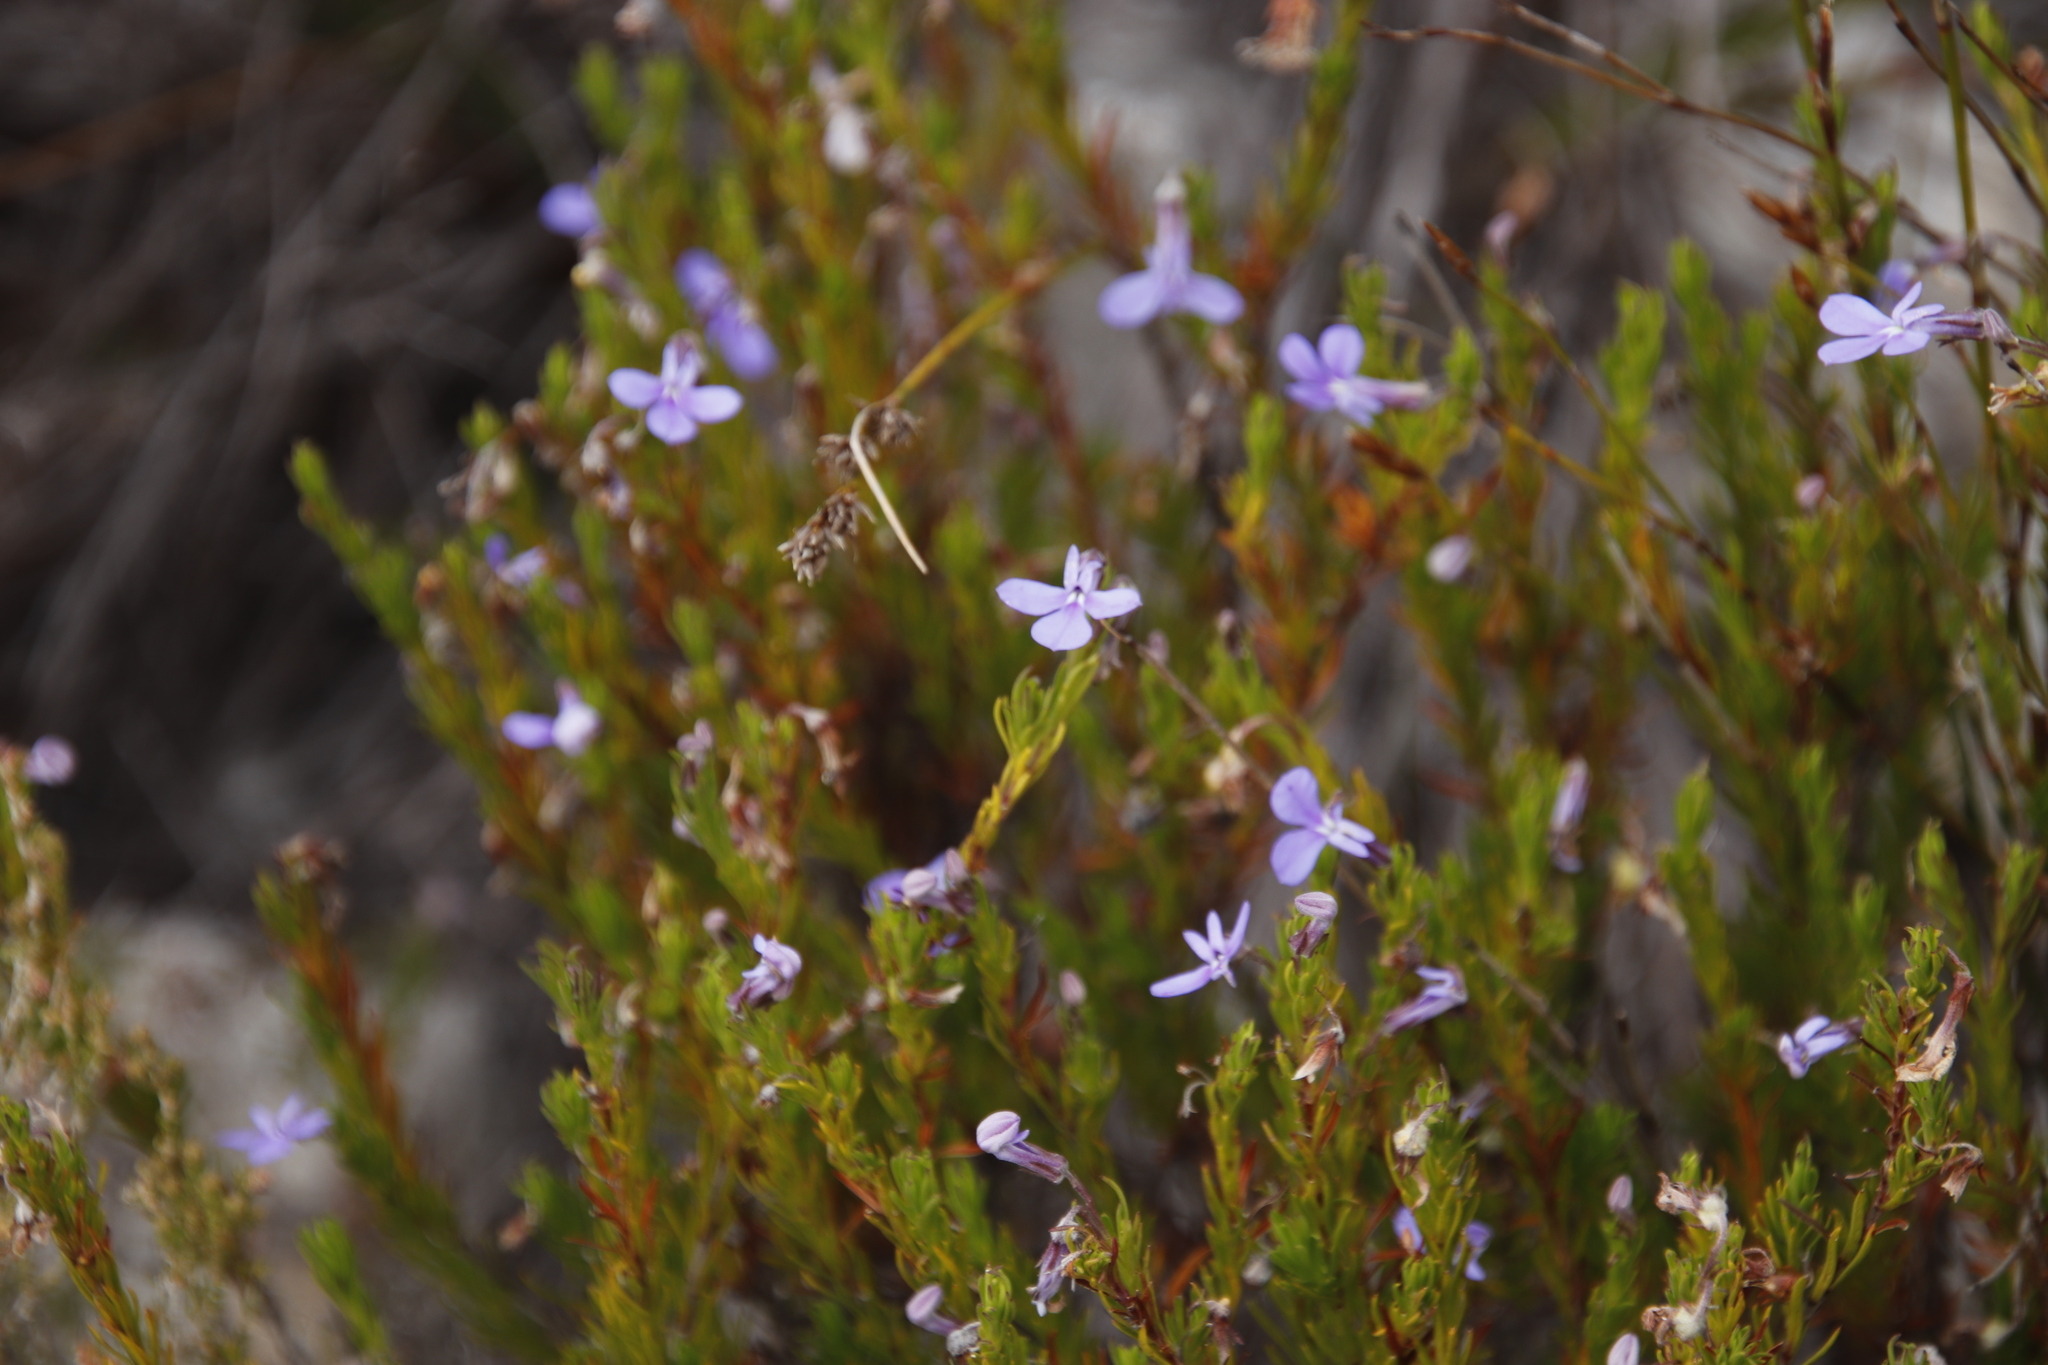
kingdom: Plantae
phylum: Tracheophyta
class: Magnoliopsida
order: Asterales
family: Campanulaceae
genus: Lobelia
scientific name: Lobelia pinifolia
